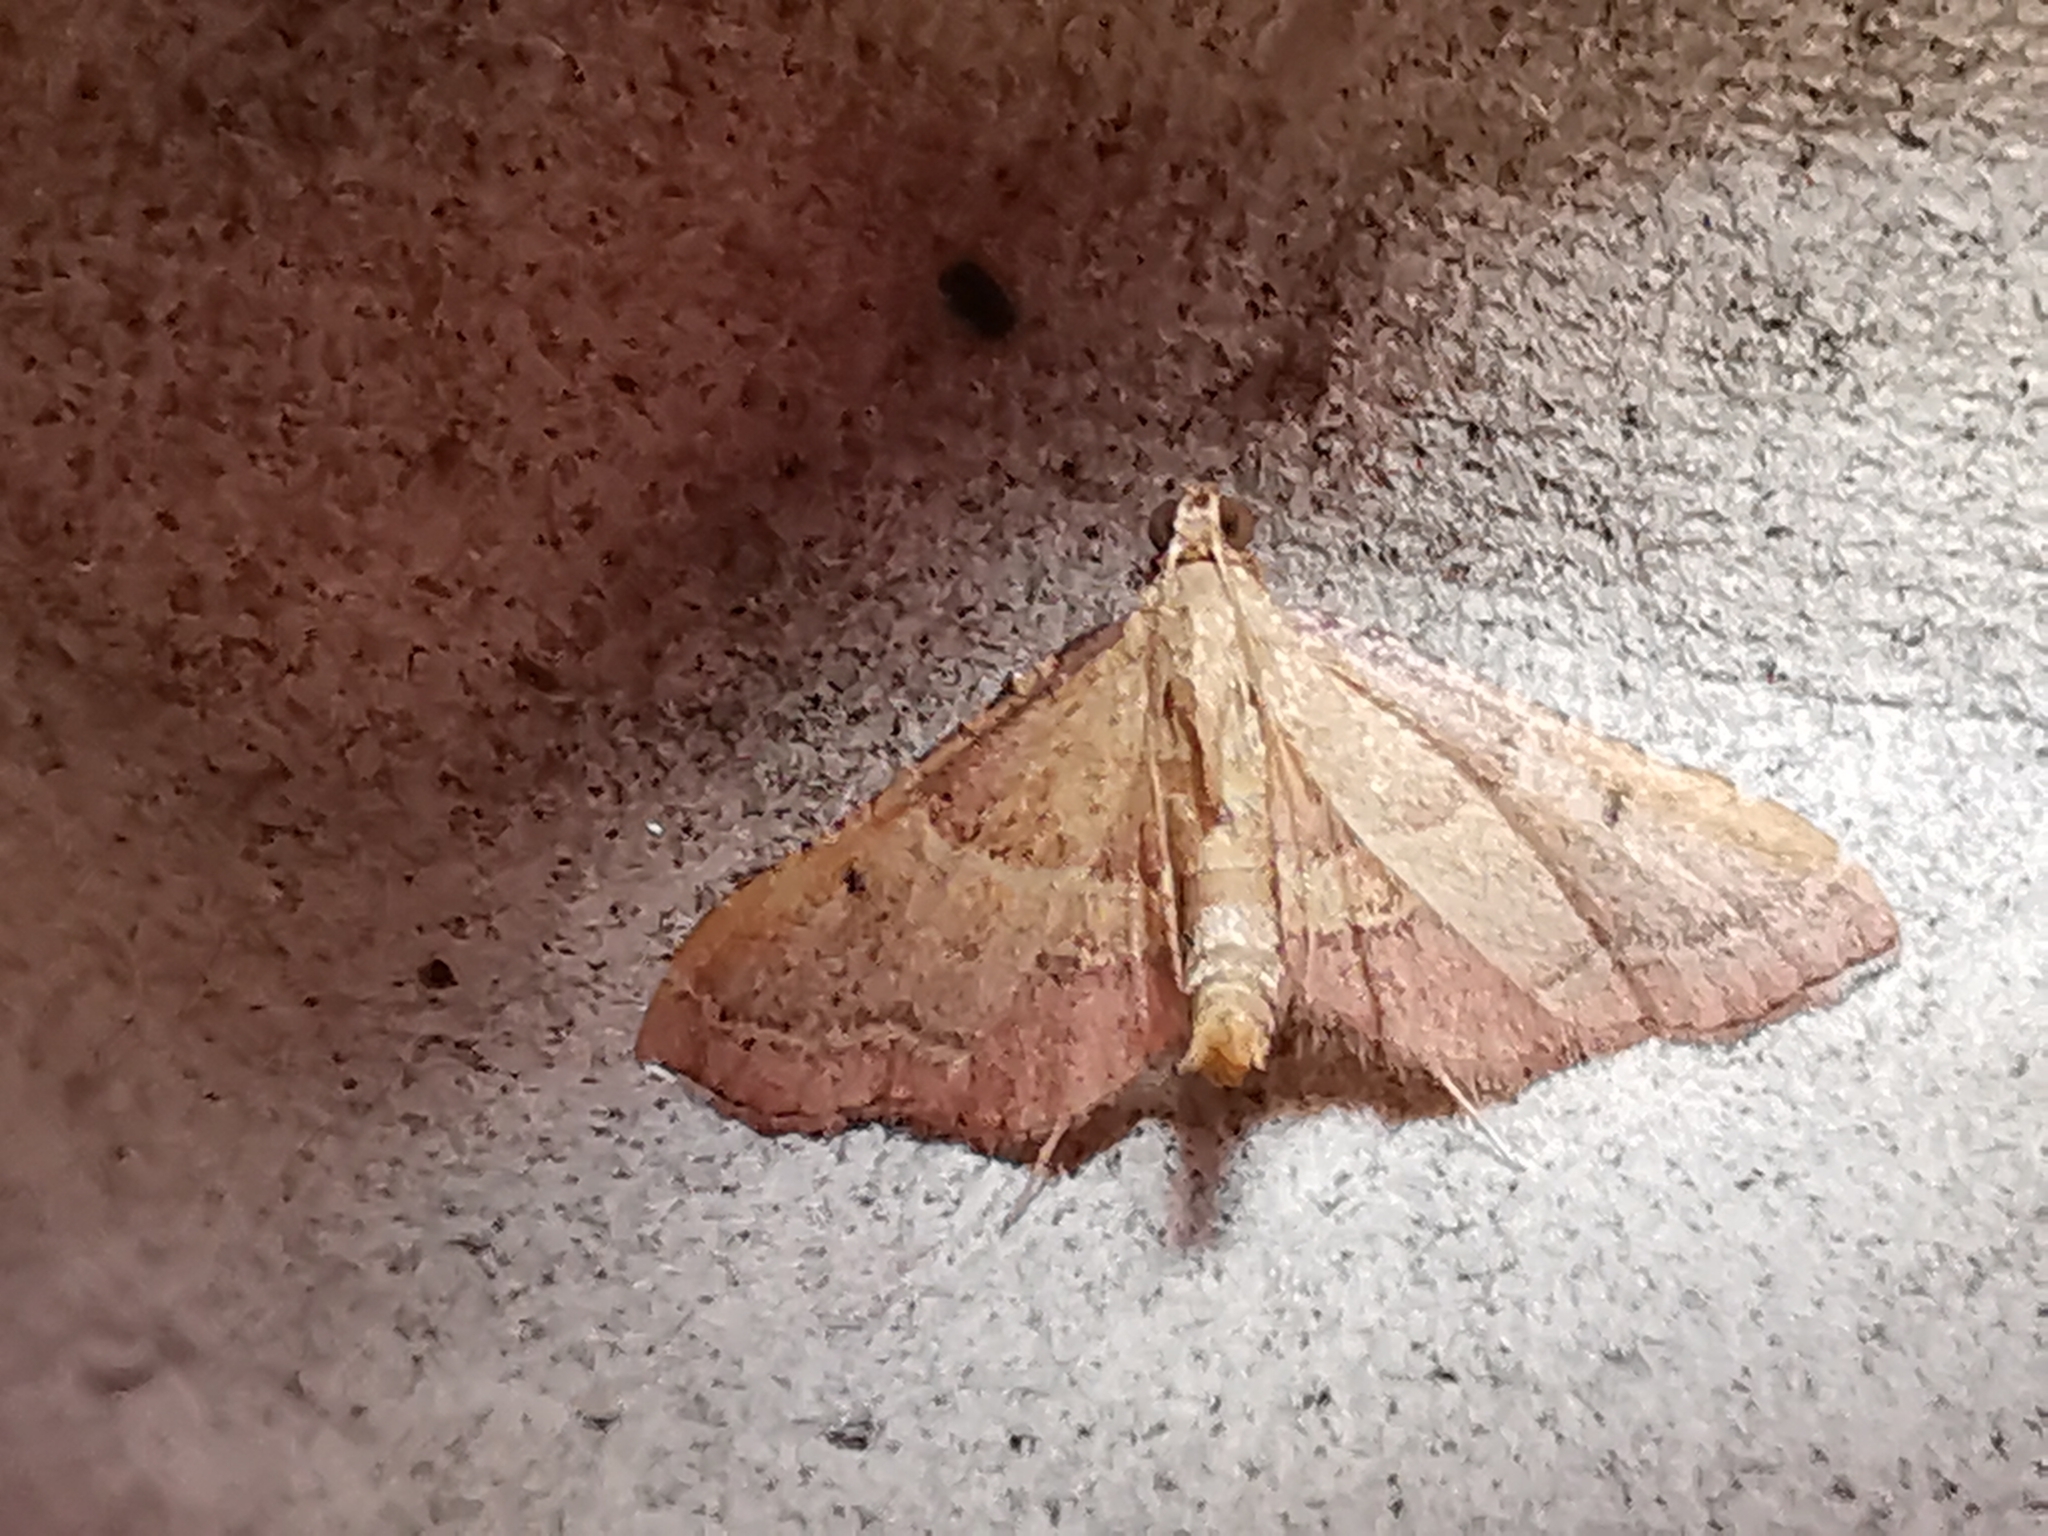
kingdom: Animalia
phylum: Arthropoda
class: Insecta
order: Lepidoptera
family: Pyralidae
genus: Endotricha
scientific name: Endotricha flammealis
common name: Rosy tabby
